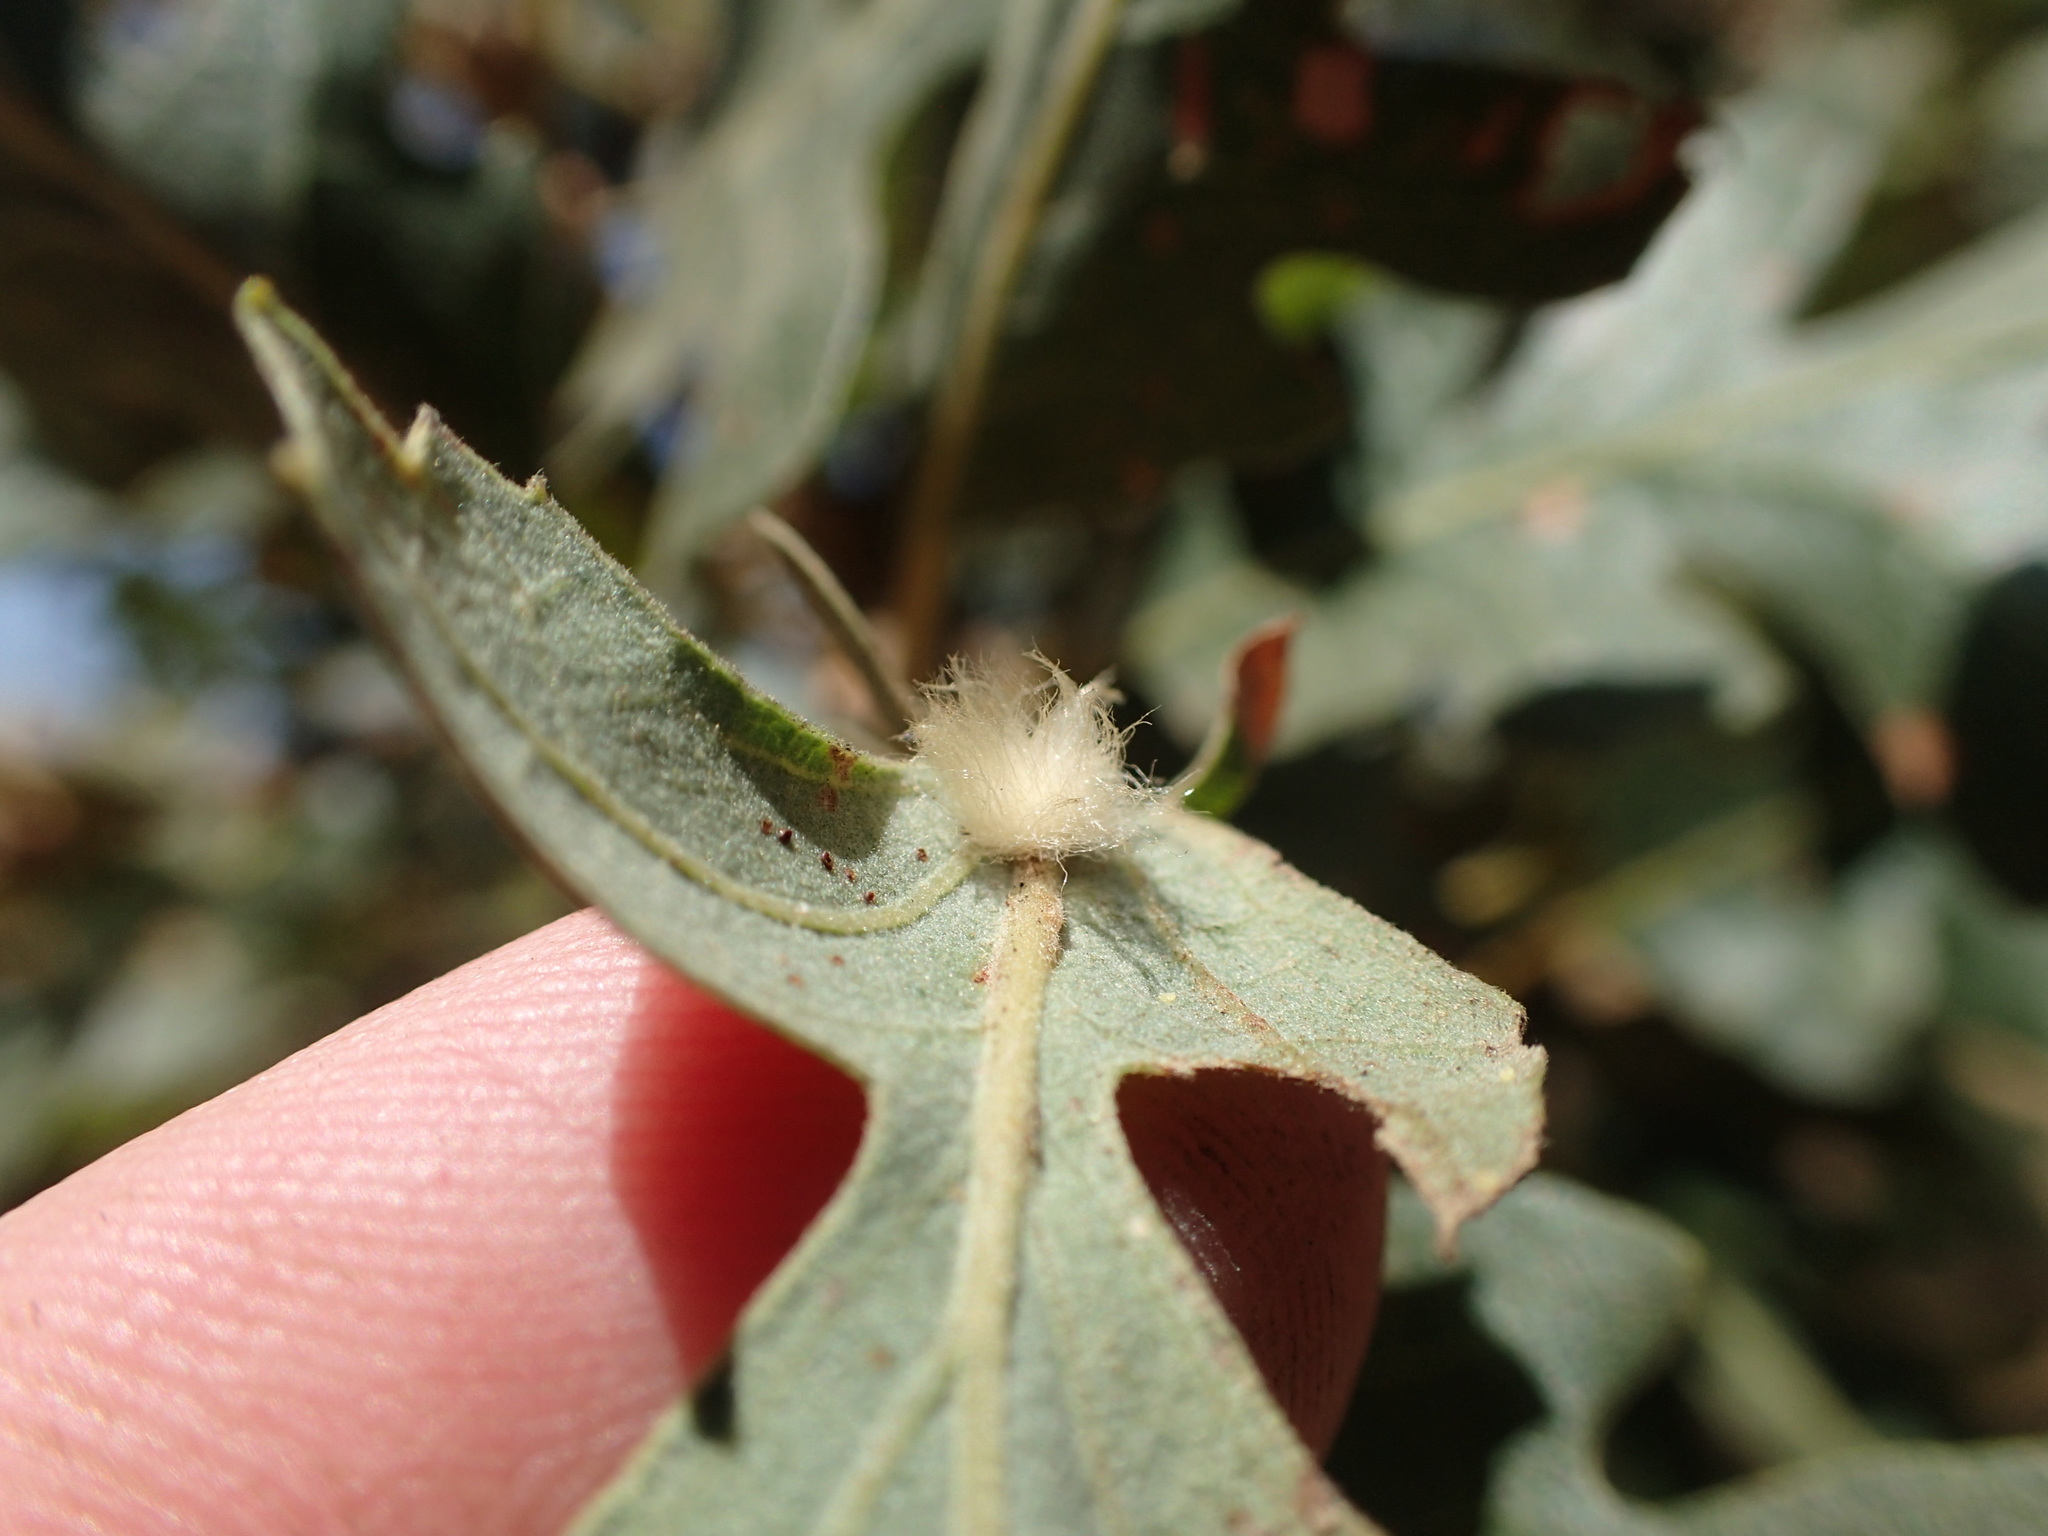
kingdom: Animalia
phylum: Arthropoda
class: Insecta
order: Hymenoptera
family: Cynipidae
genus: Andricus
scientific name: Andricus Druon fullawayi
